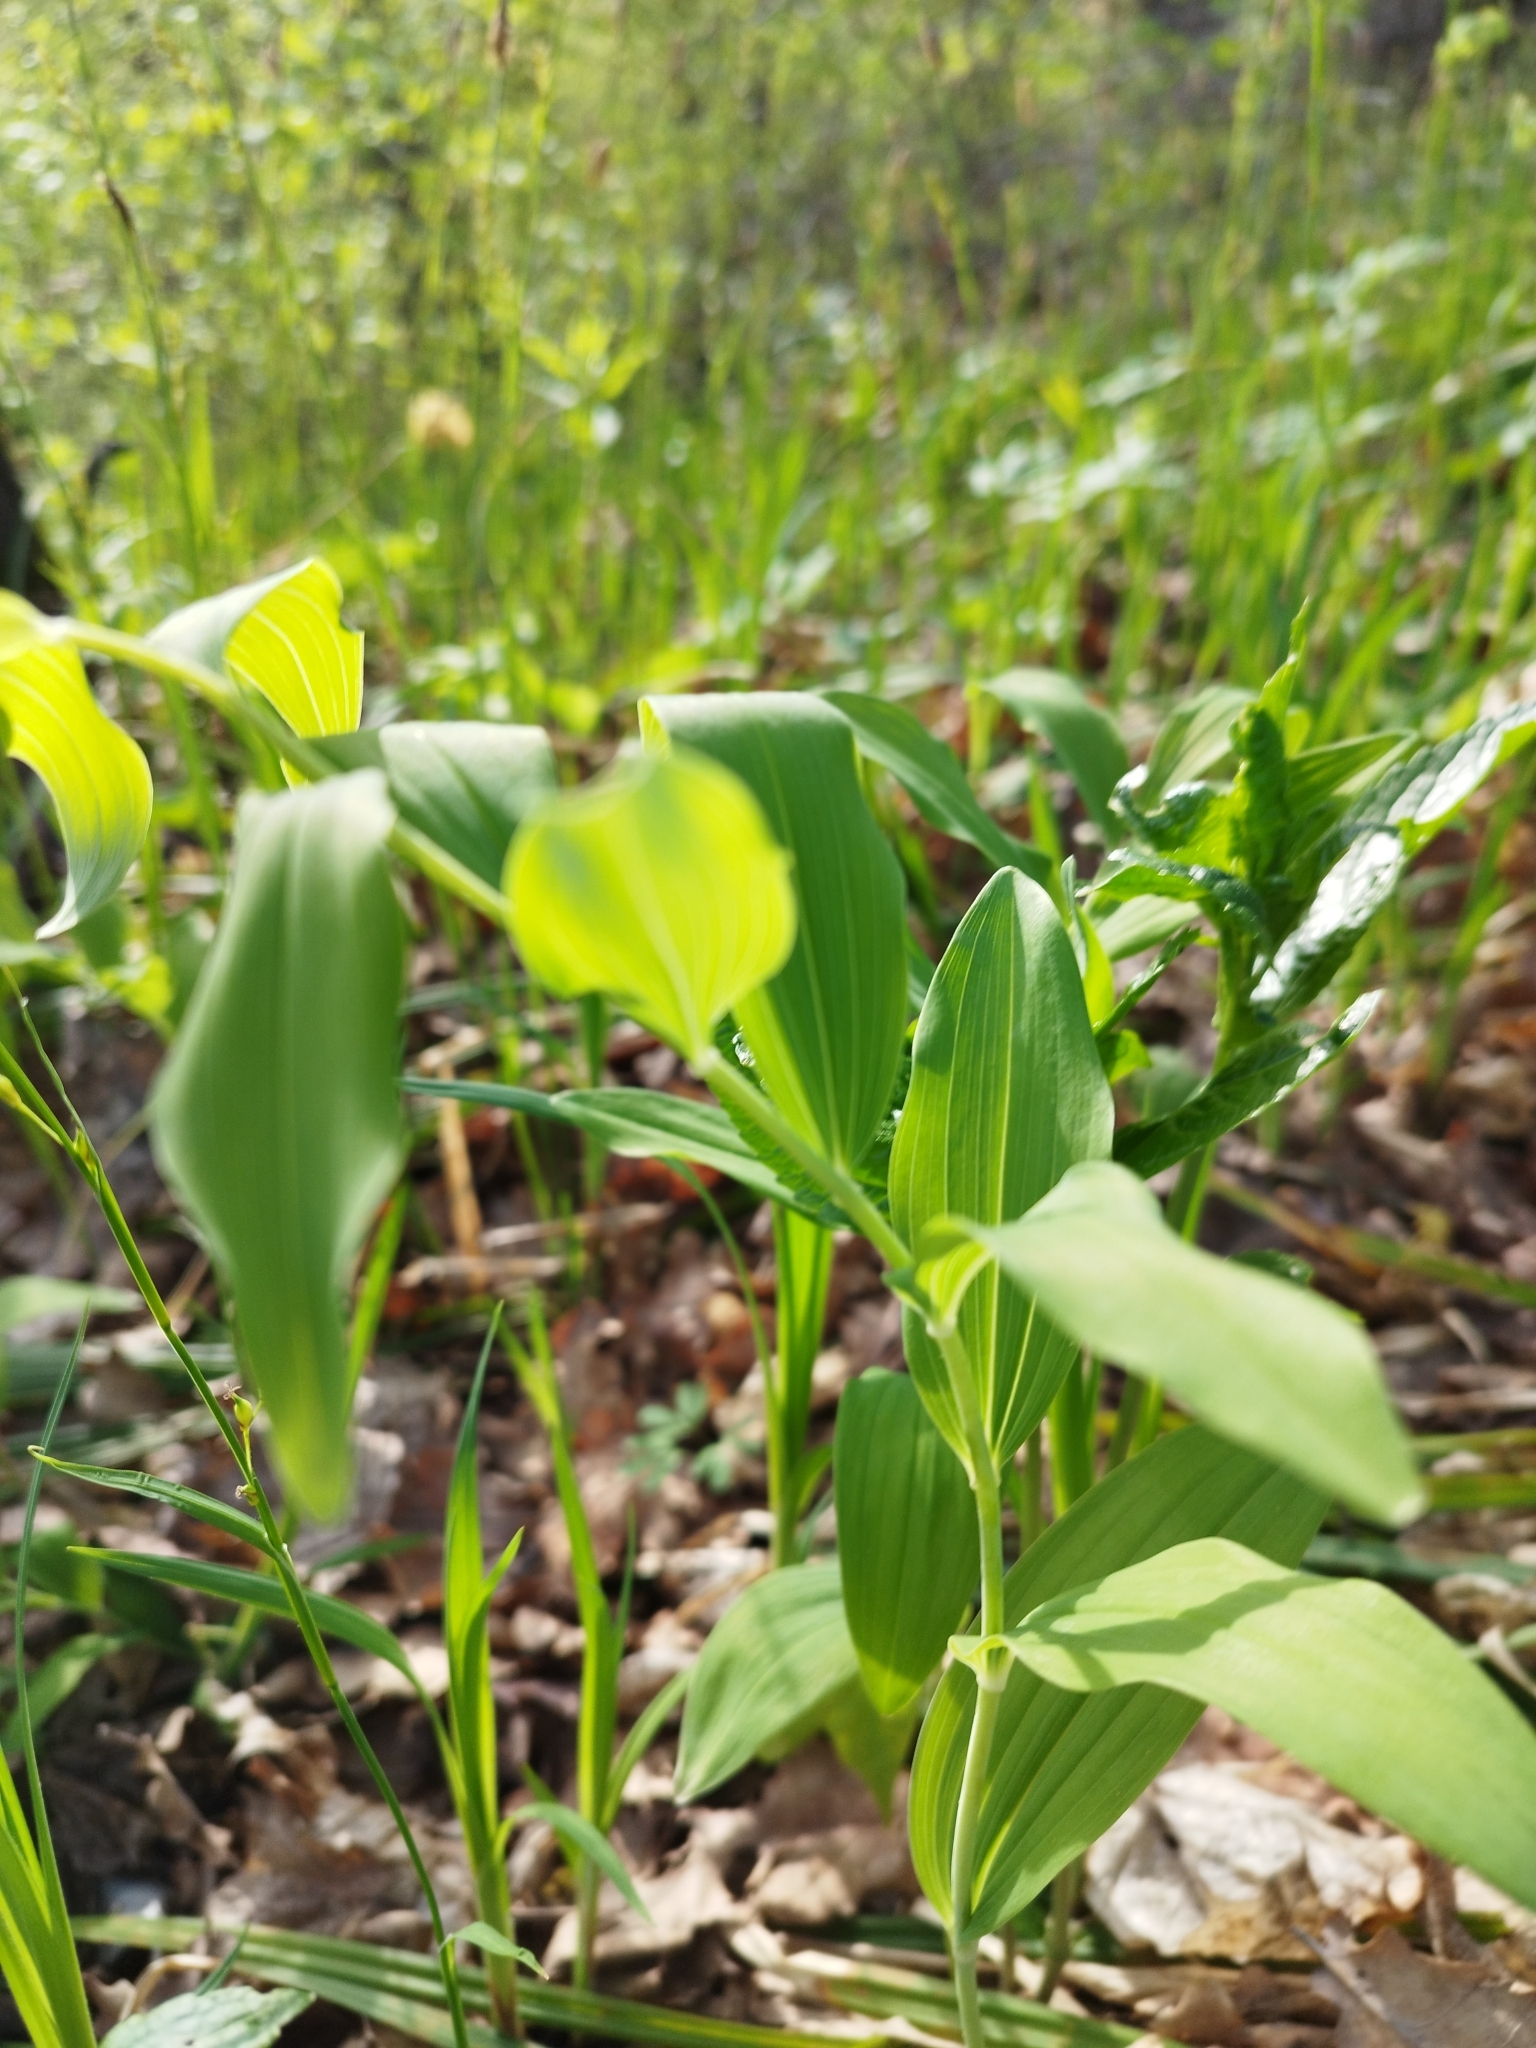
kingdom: Plantae
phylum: Tracheophyta
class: Liliopsida
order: Asparagales
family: Asparagaceae
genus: Polygonatum
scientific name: Polygonatum odoratum
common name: Angular solomon's-seal
